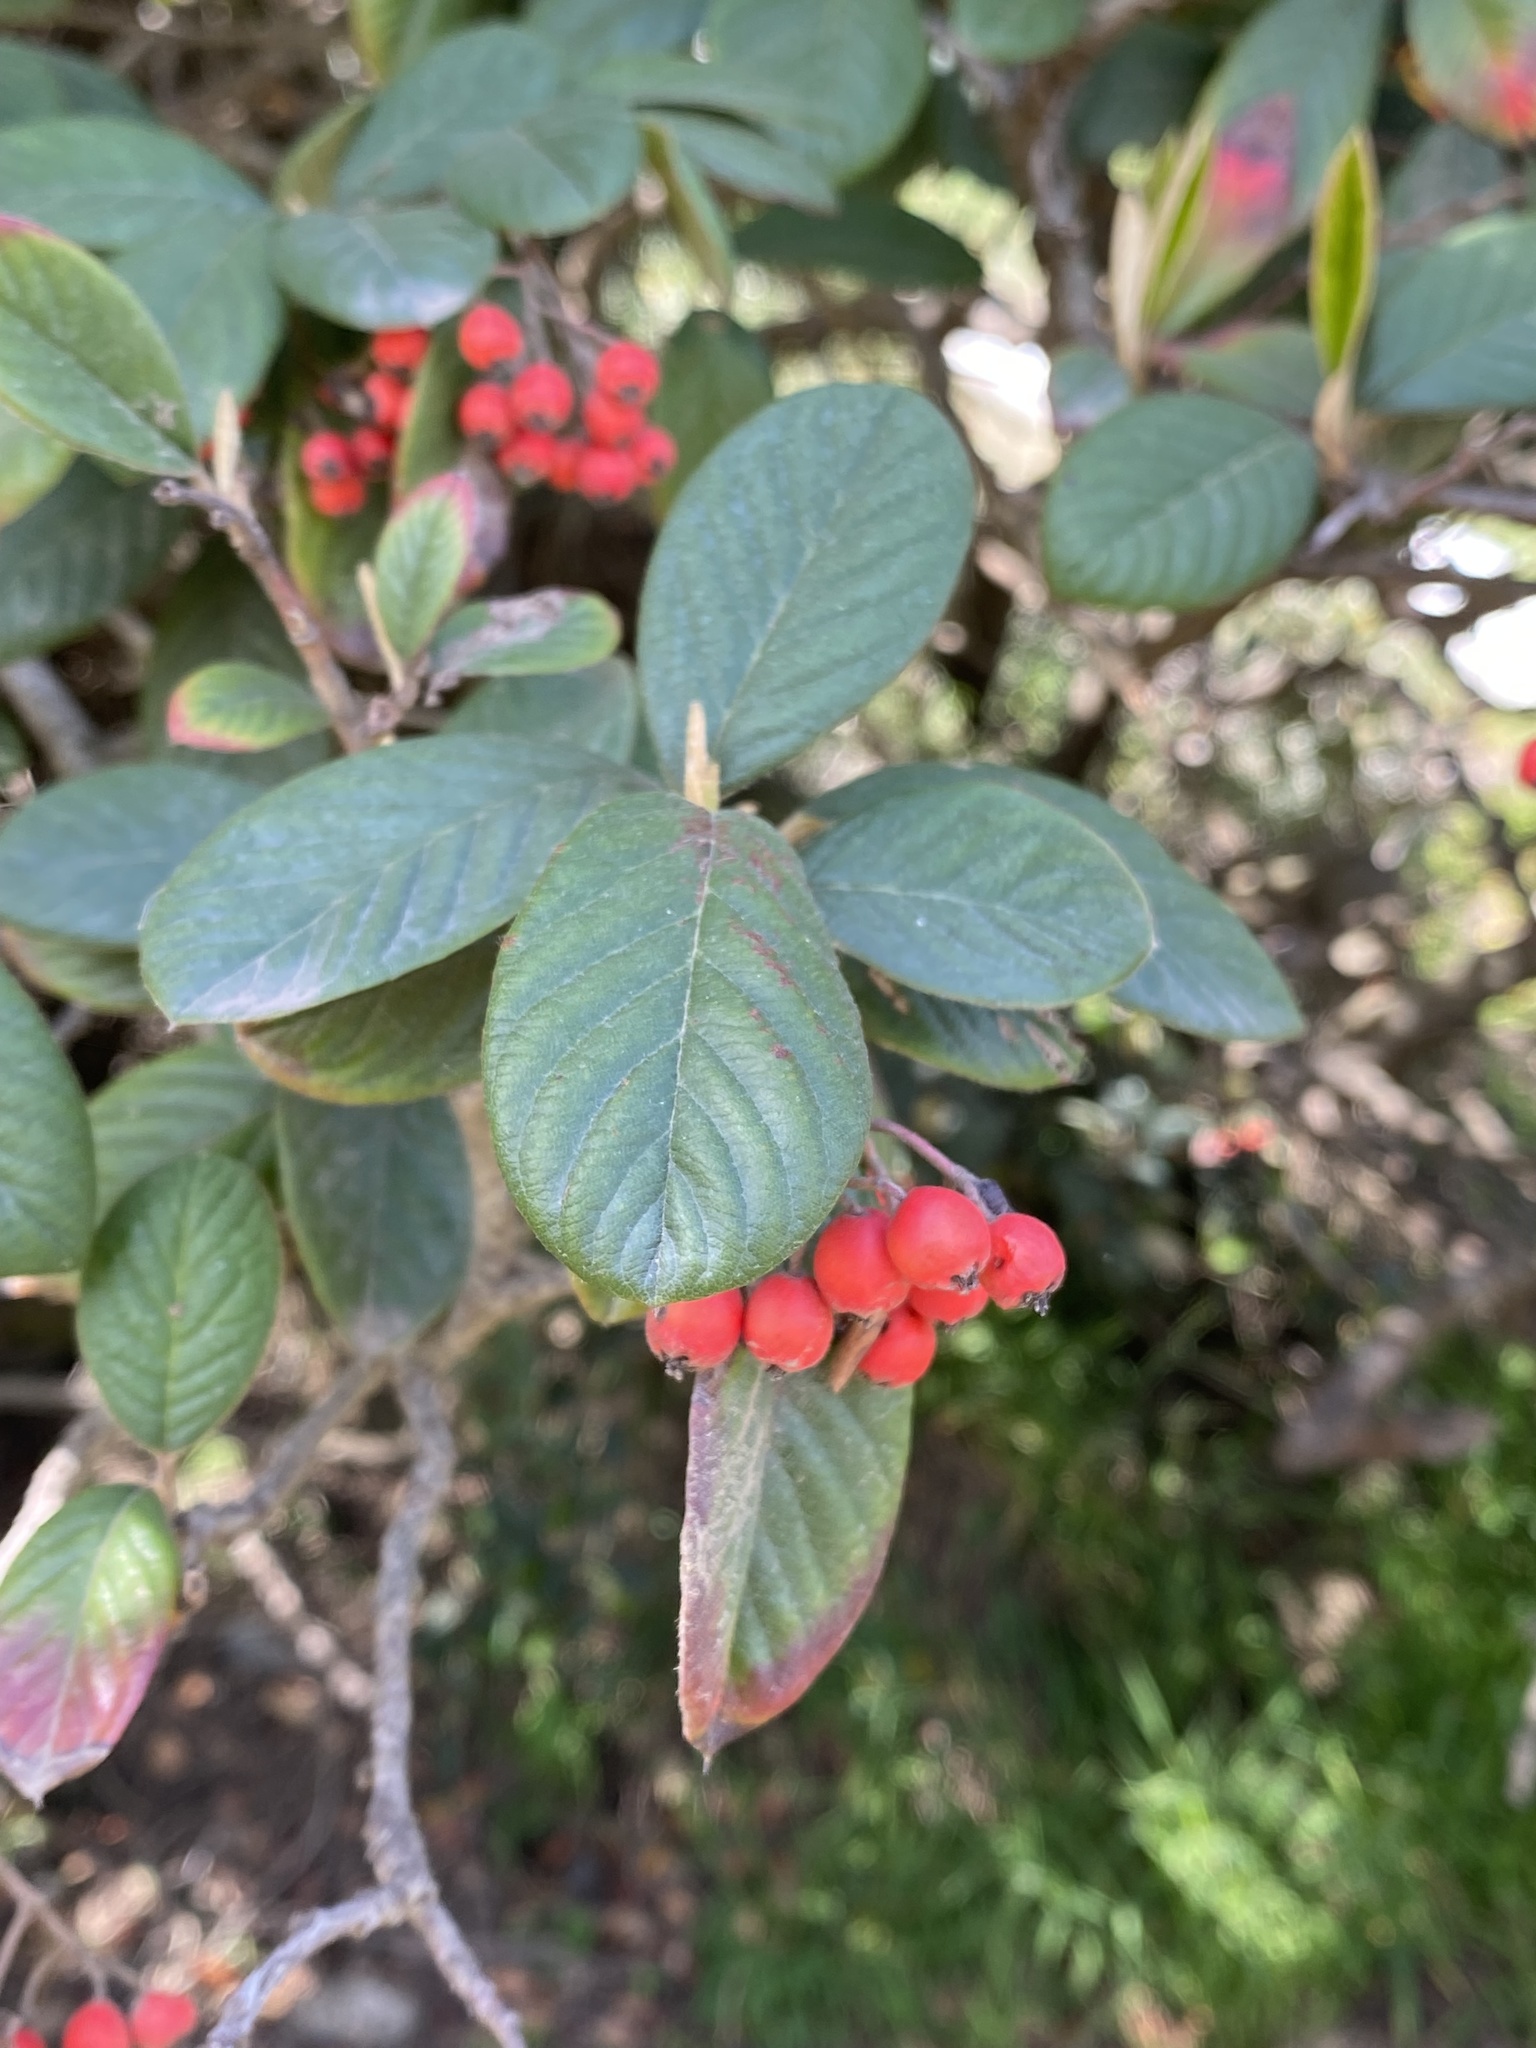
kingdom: Plantae
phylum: Tracheophyta
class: Magnoliopsida
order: Rosales
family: Rosaceae
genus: Cotoneaster
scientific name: Cotoneaster coriaceus
